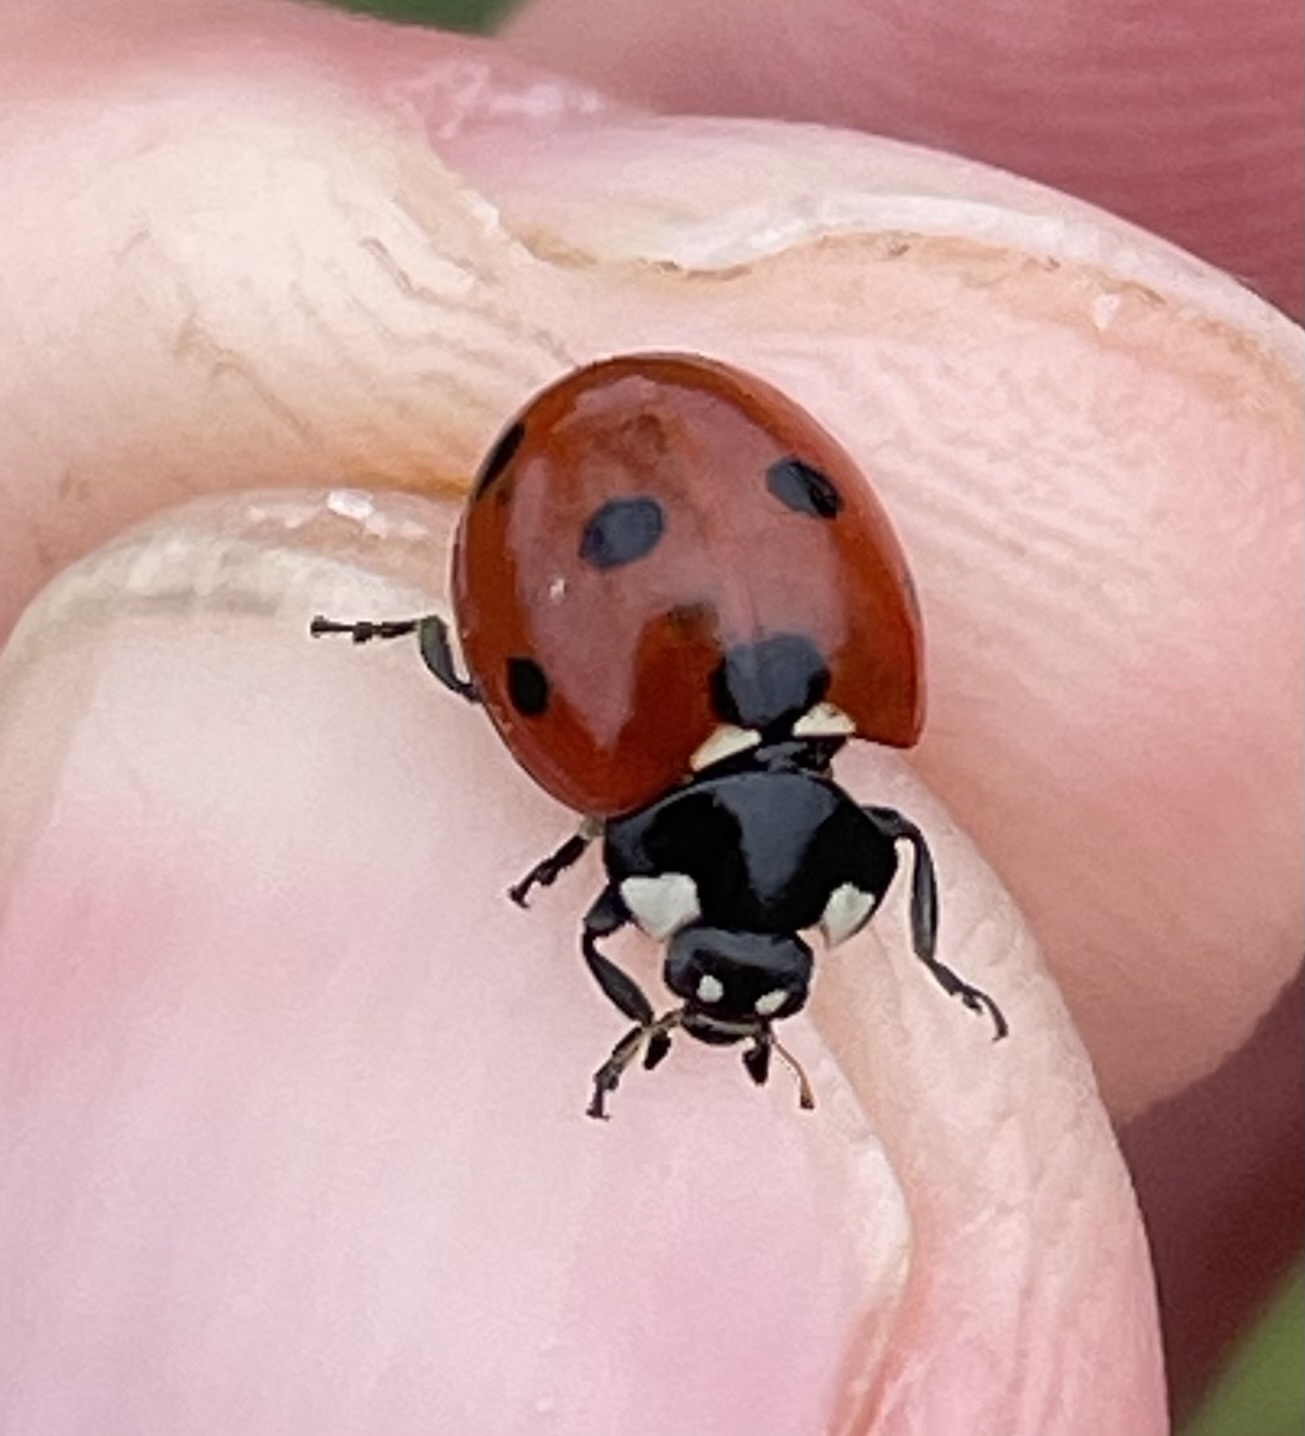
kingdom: Animalia
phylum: Arthropoda
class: Insecta
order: Coleoptera
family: Coccinellidae
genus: Coccinella
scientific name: Coccinella septempunctata
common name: Sevenspotted lady beetle
